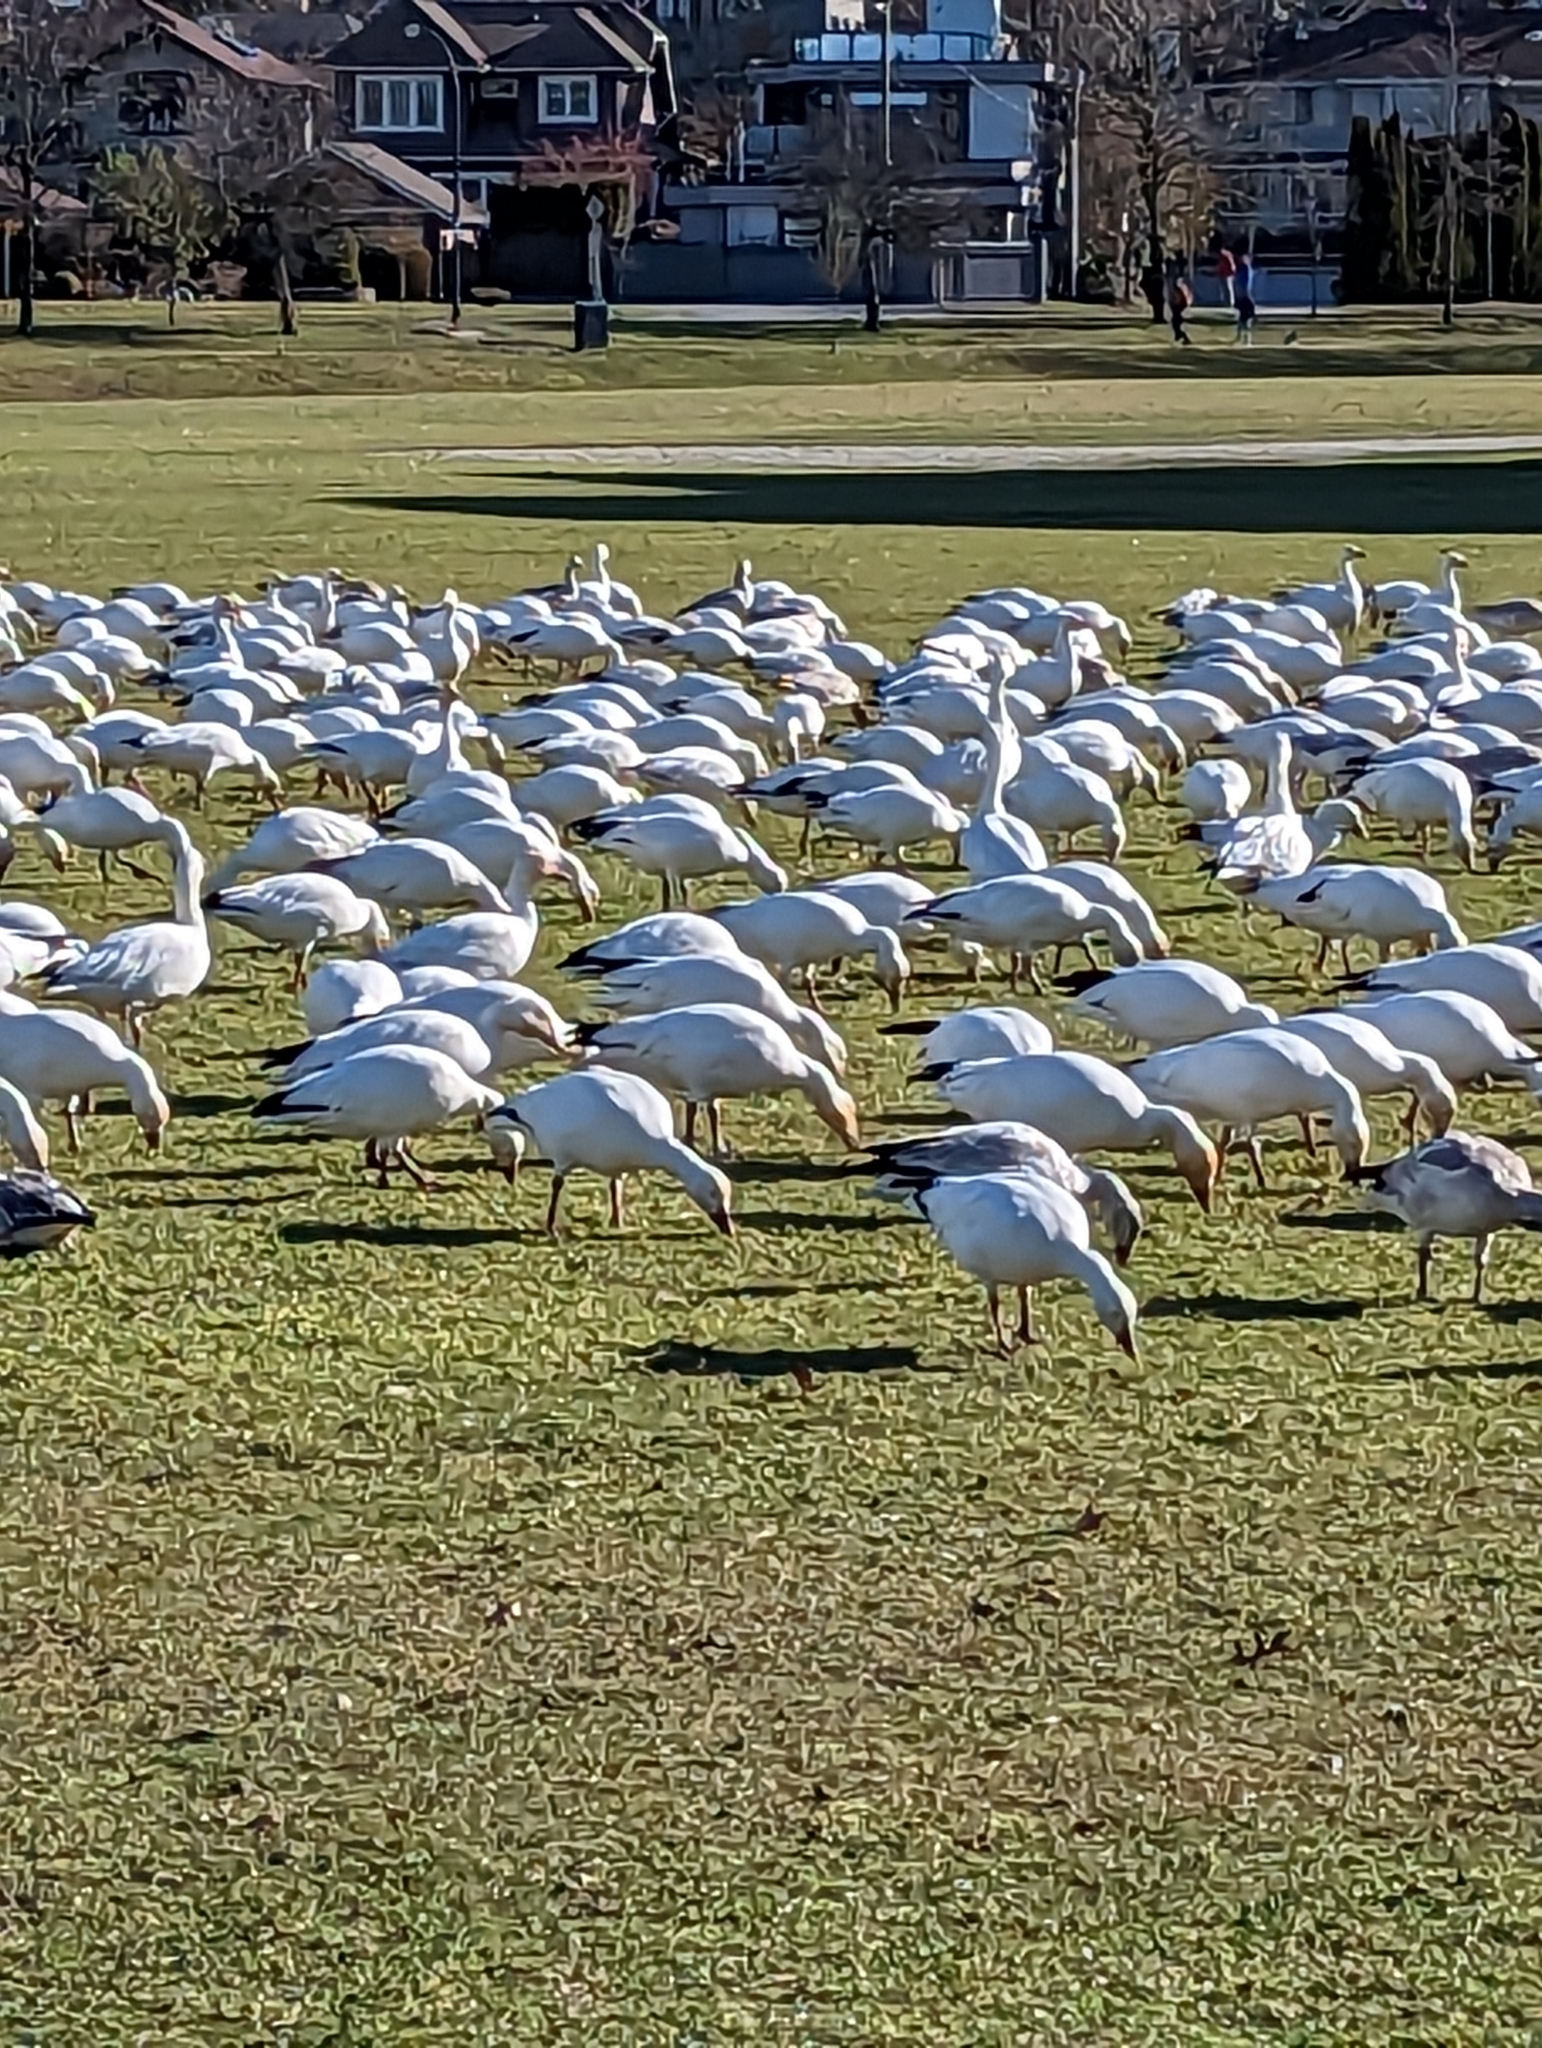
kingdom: Animalia
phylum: Chordata
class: Aves
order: Anseriformes
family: Anatidae
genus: Anser
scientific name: Anser caerulescens
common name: Snow goose
